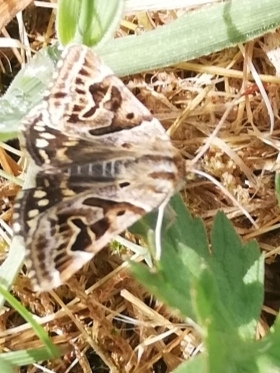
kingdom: Animalia
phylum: Arthropoda
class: Insecta
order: Lepidoptera
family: Erebidae
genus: Callistege
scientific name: Callistege mi
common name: Mother shipton
